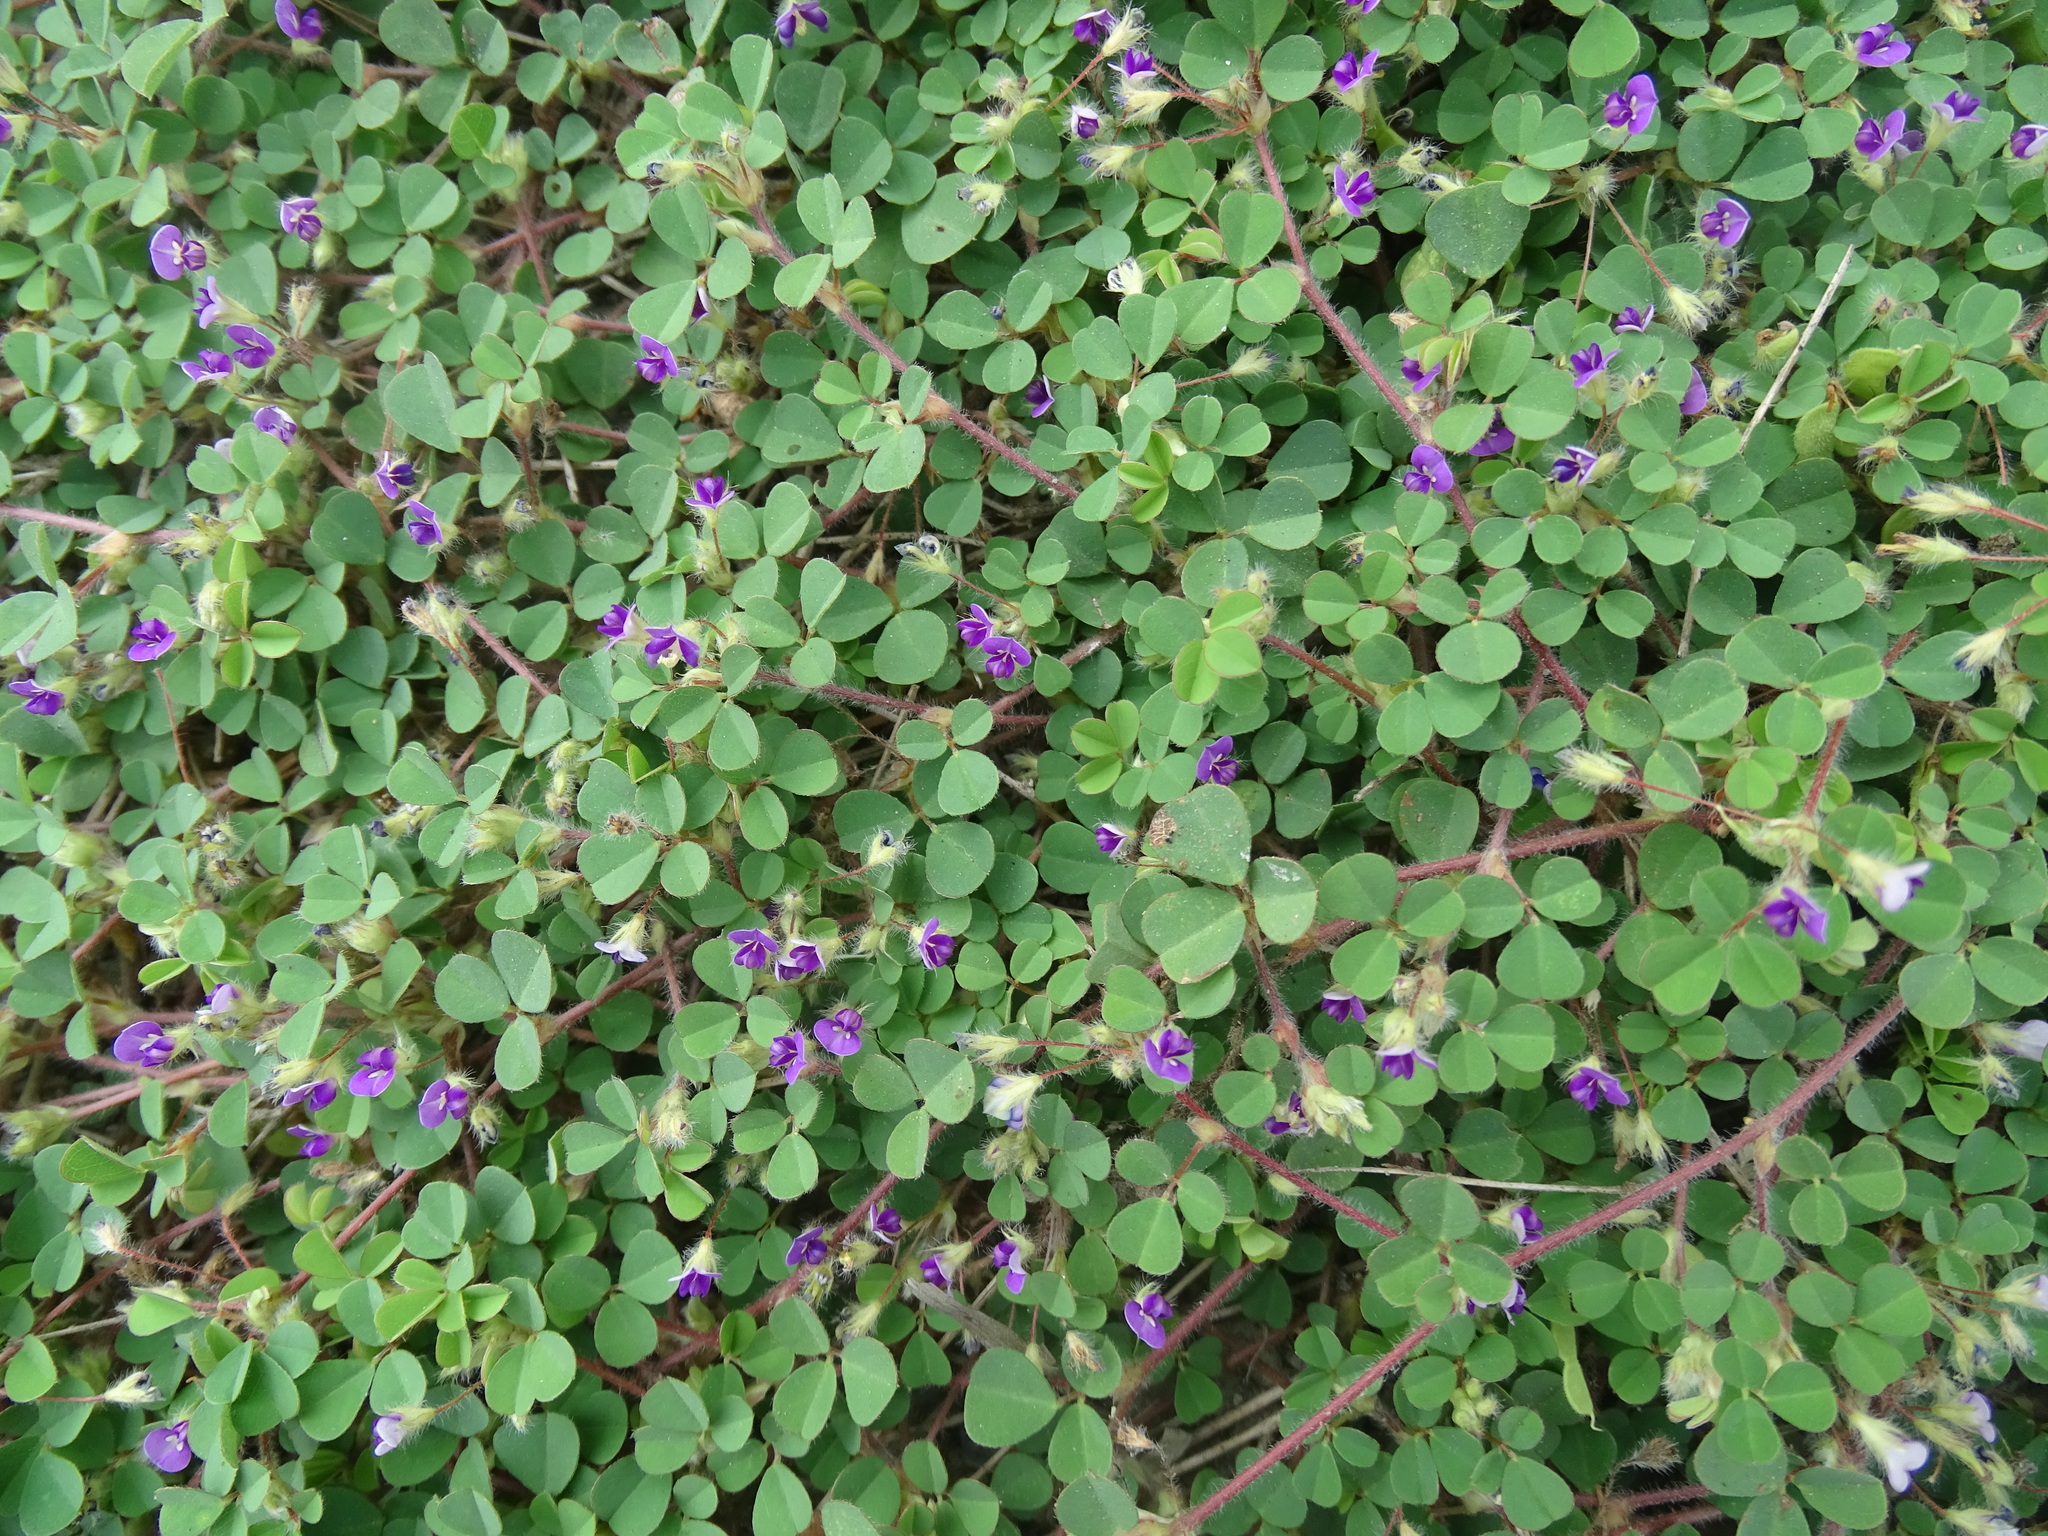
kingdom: Plantae
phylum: Tracheophyta
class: Magnoliopsida
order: Fabales
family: Fabaceae
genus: Grona
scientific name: Grona triflora
